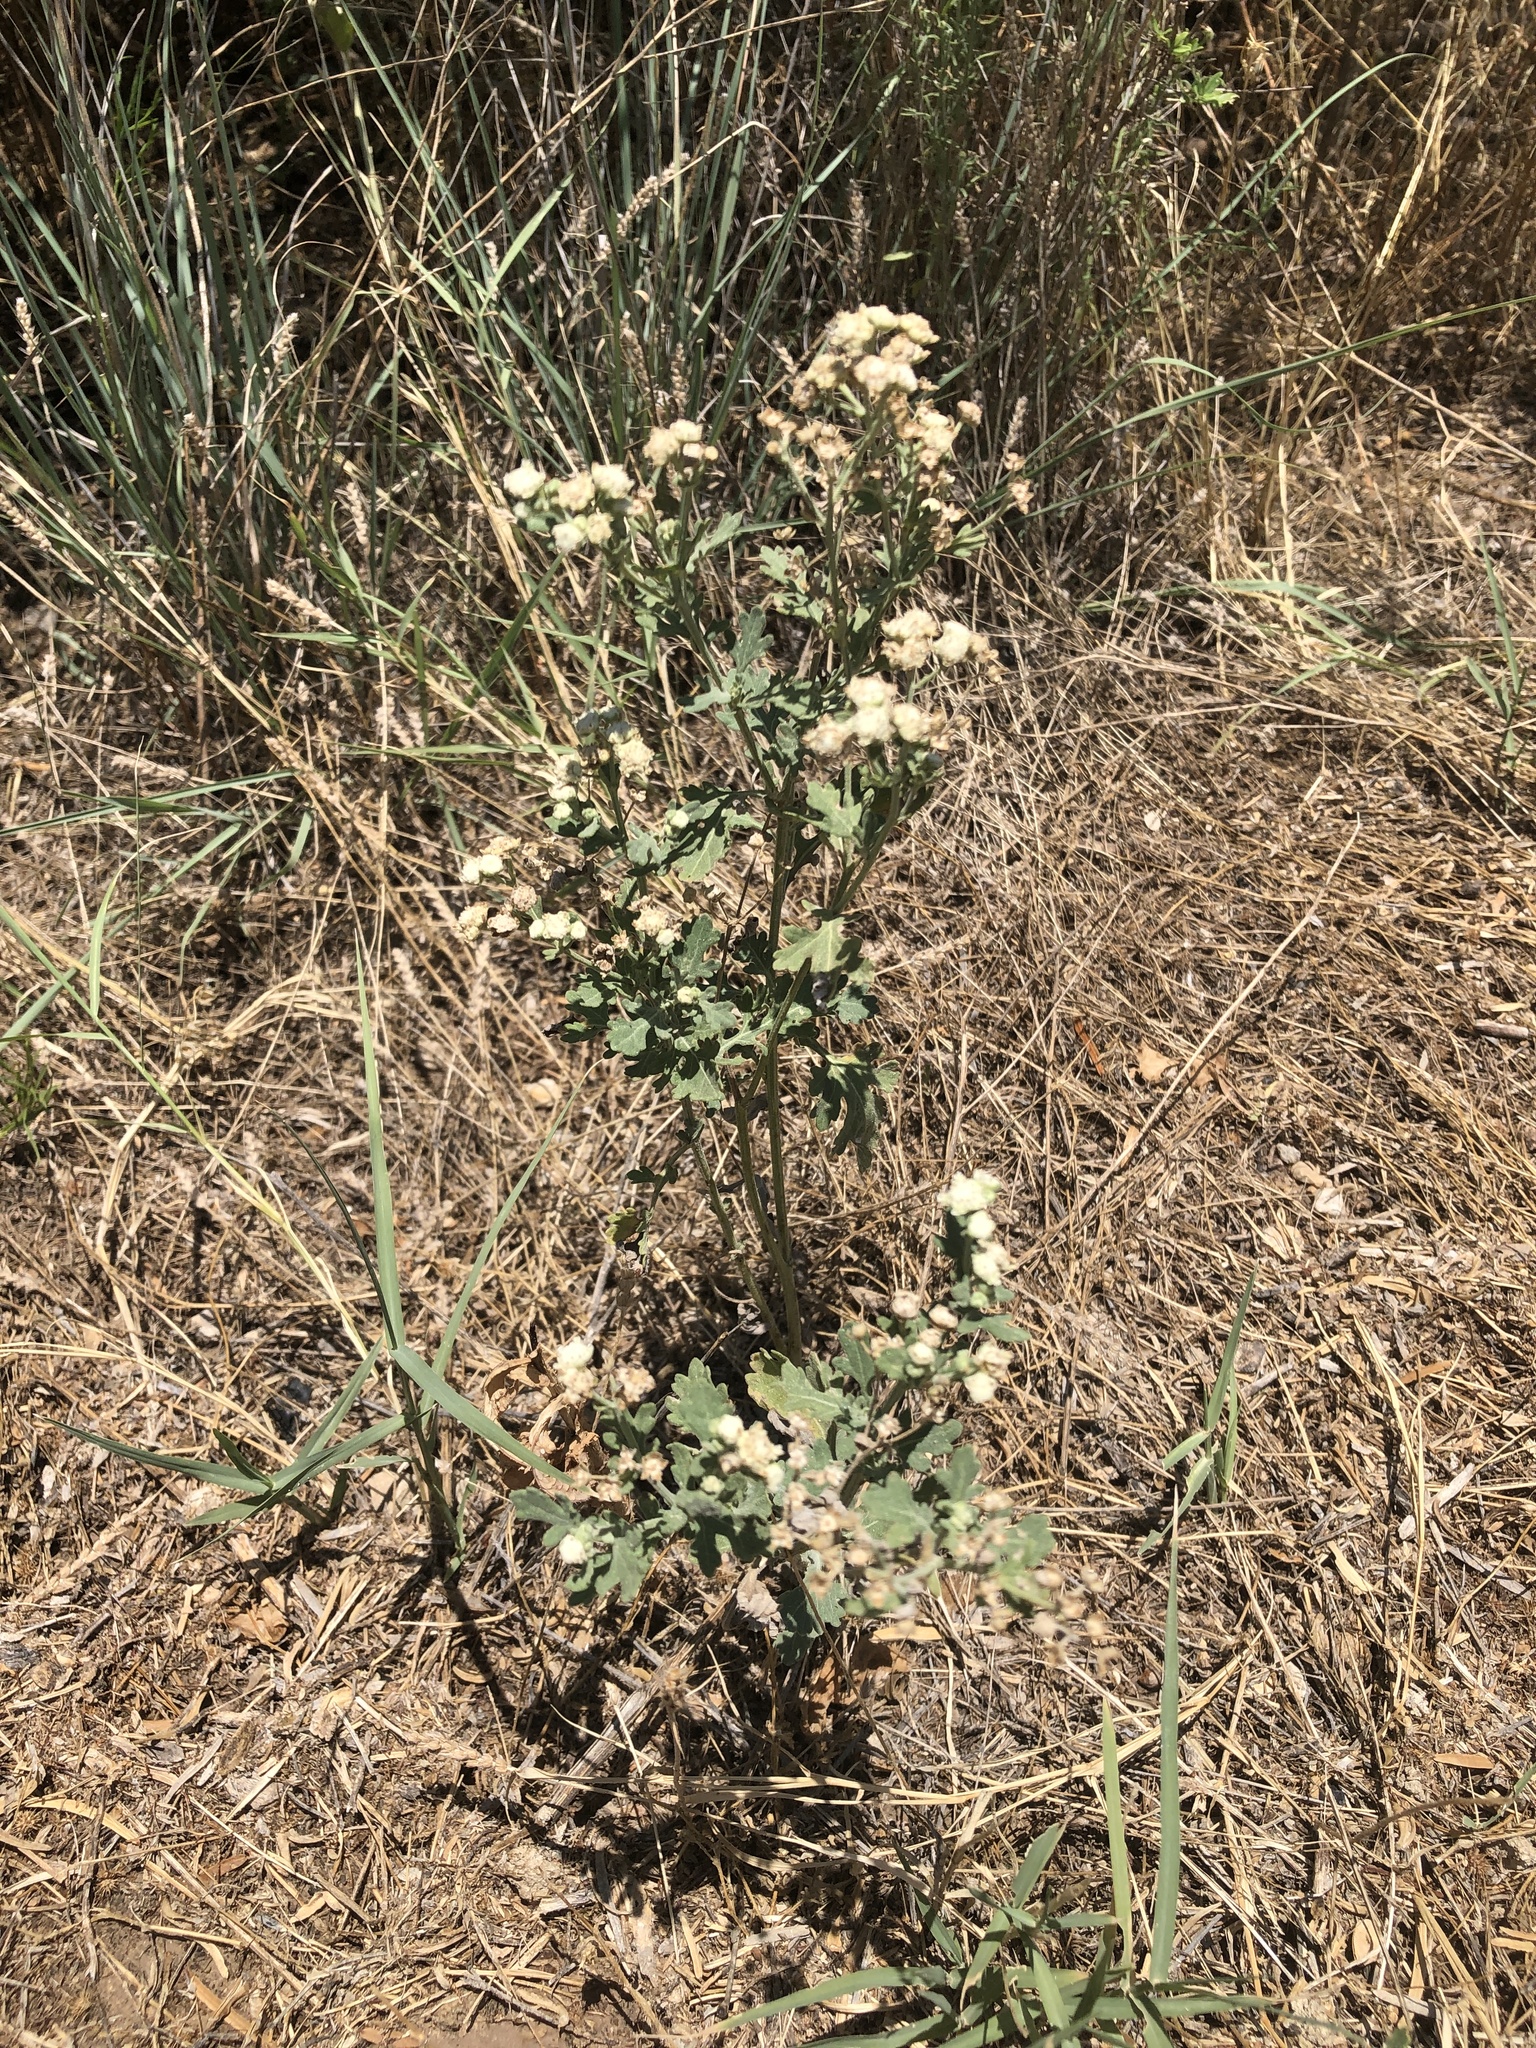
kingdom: Plantae
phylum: Tracheophyta
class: Magnoliopsida
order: Asterales
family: Asteraceae
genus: Parthenium
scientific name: Parthenium confertum
